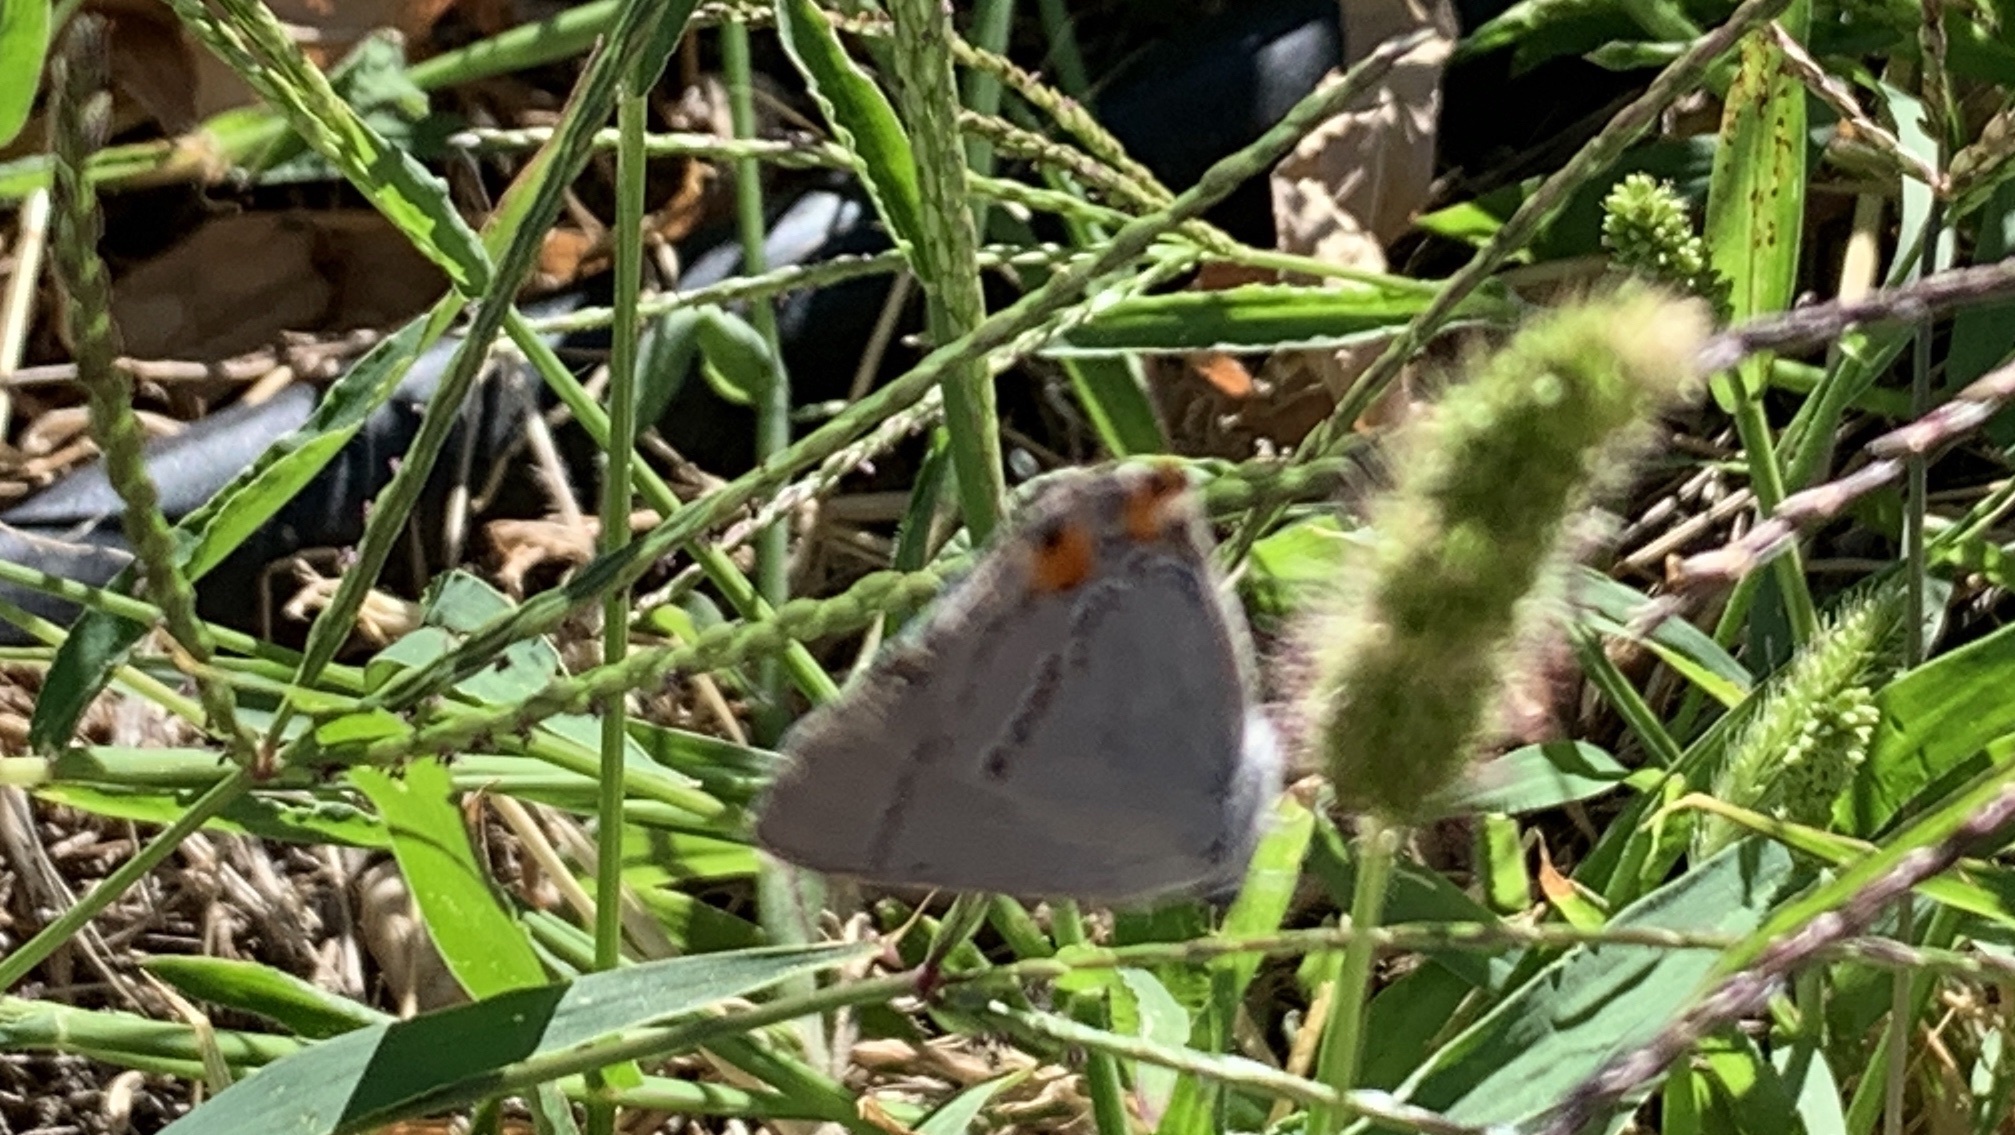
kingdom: Animalia
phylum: Arthropoda
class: Insecta
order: Lepidoptera
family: Lycaenidae
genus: Strymon
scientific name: Strymon melinus
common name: Gray hairstreak
